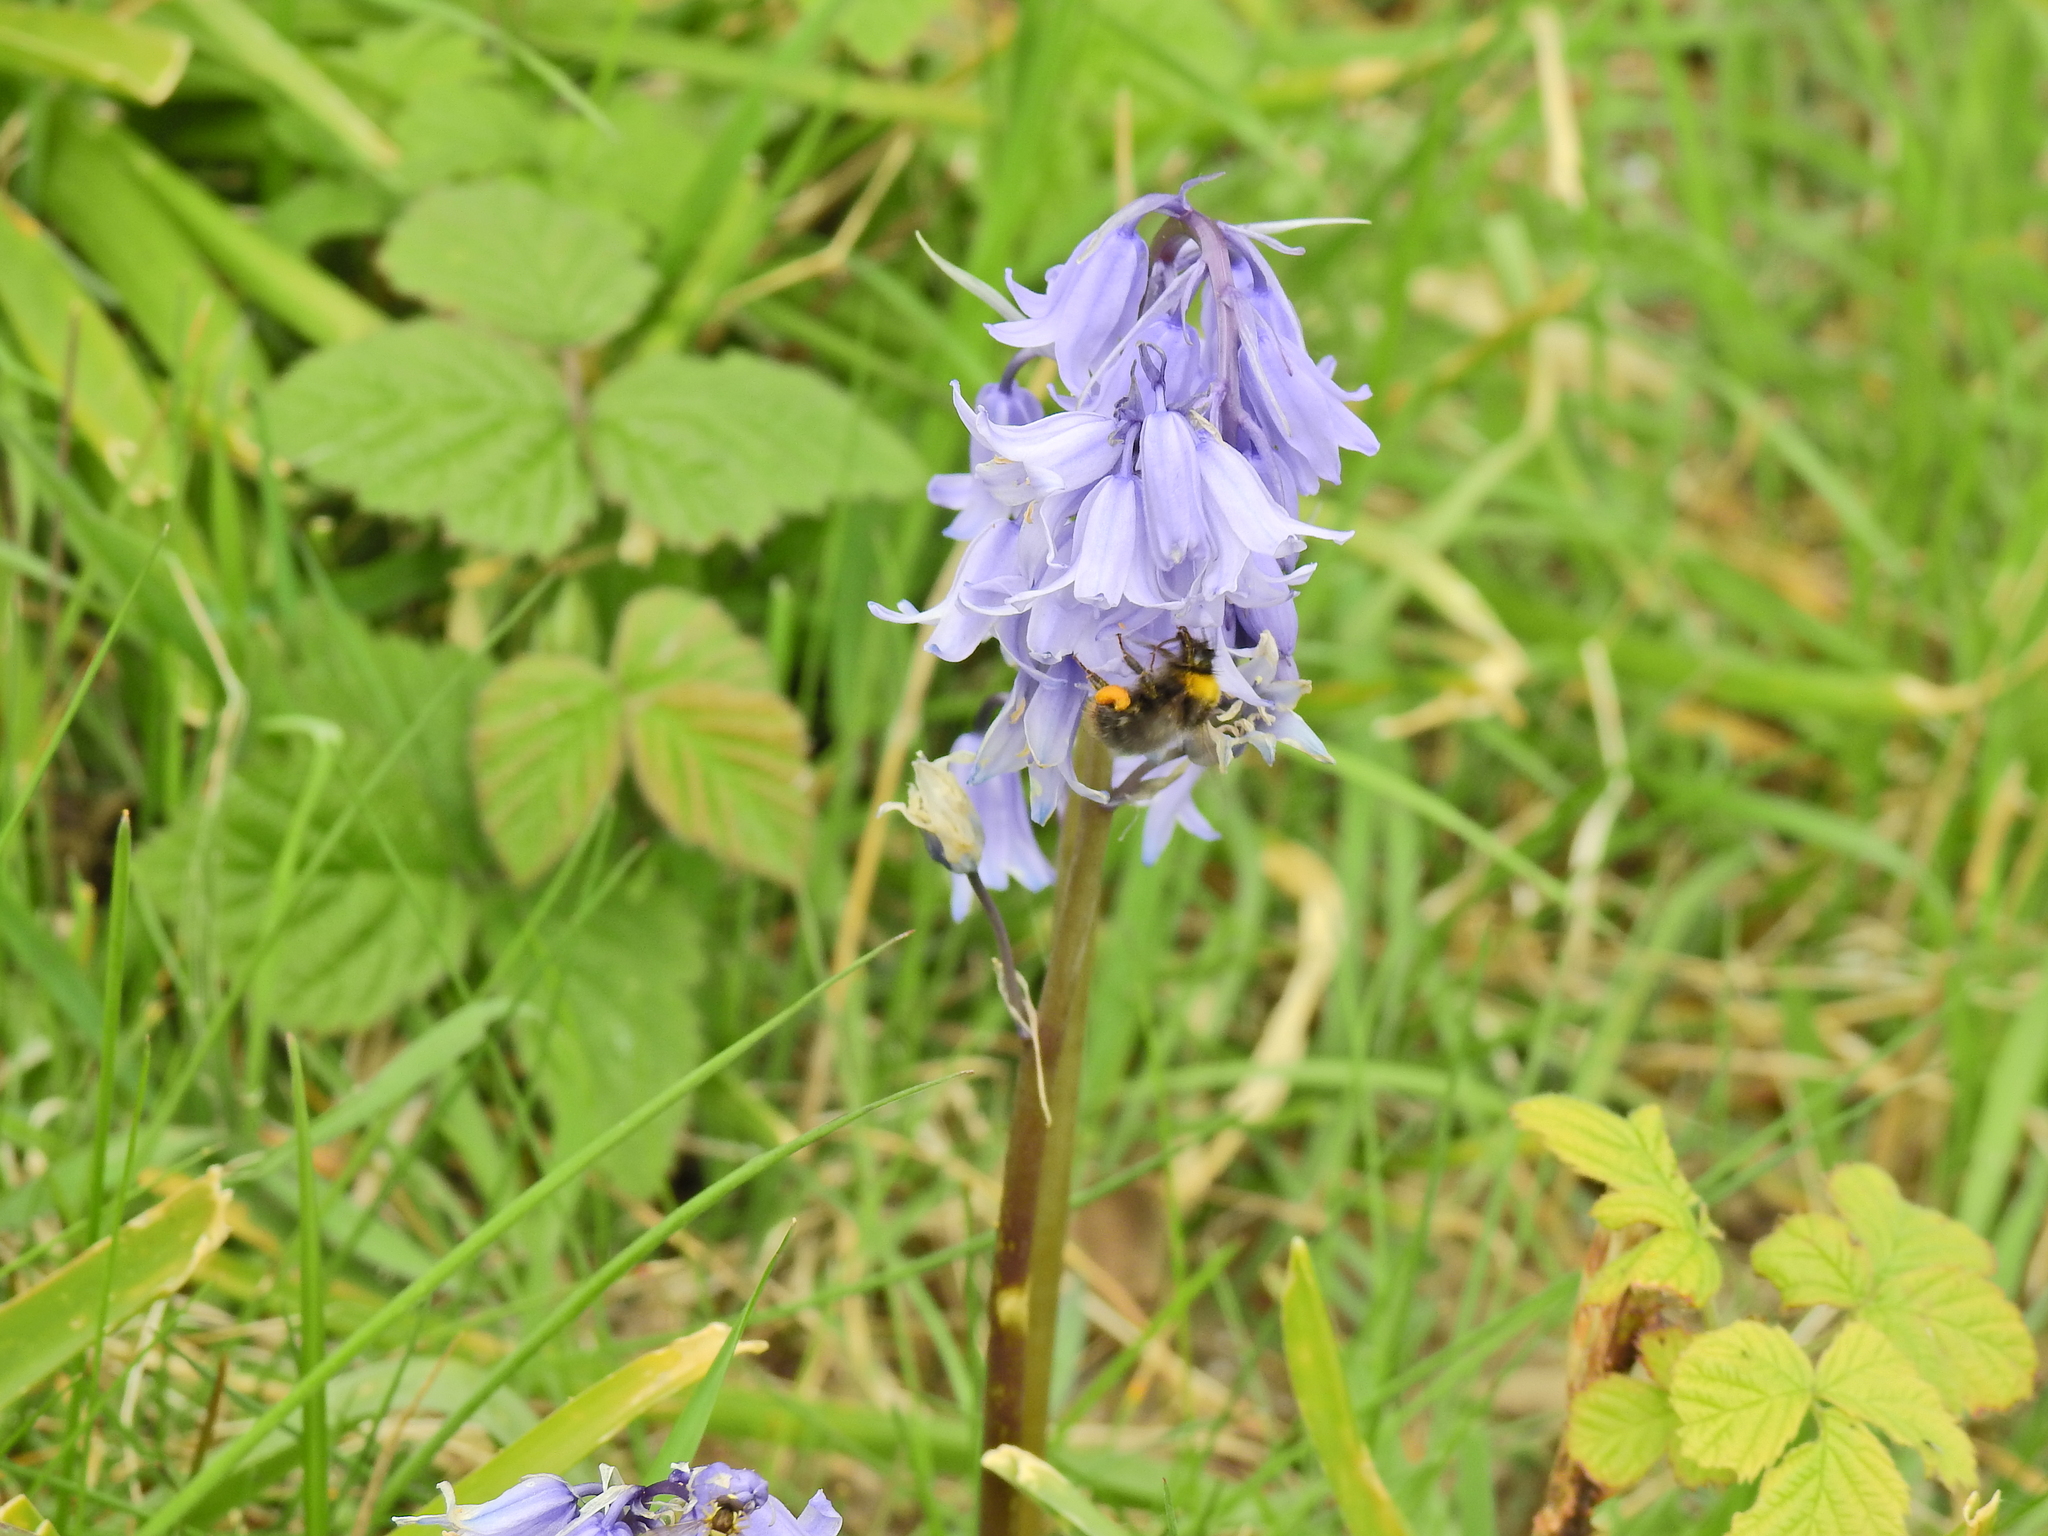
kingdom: Animalia
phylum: Arthropoda
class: Insecta
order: Hymenoptera
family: Apidae
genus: Bombus
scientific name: Bombus pratorum
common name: Early humble-bee
